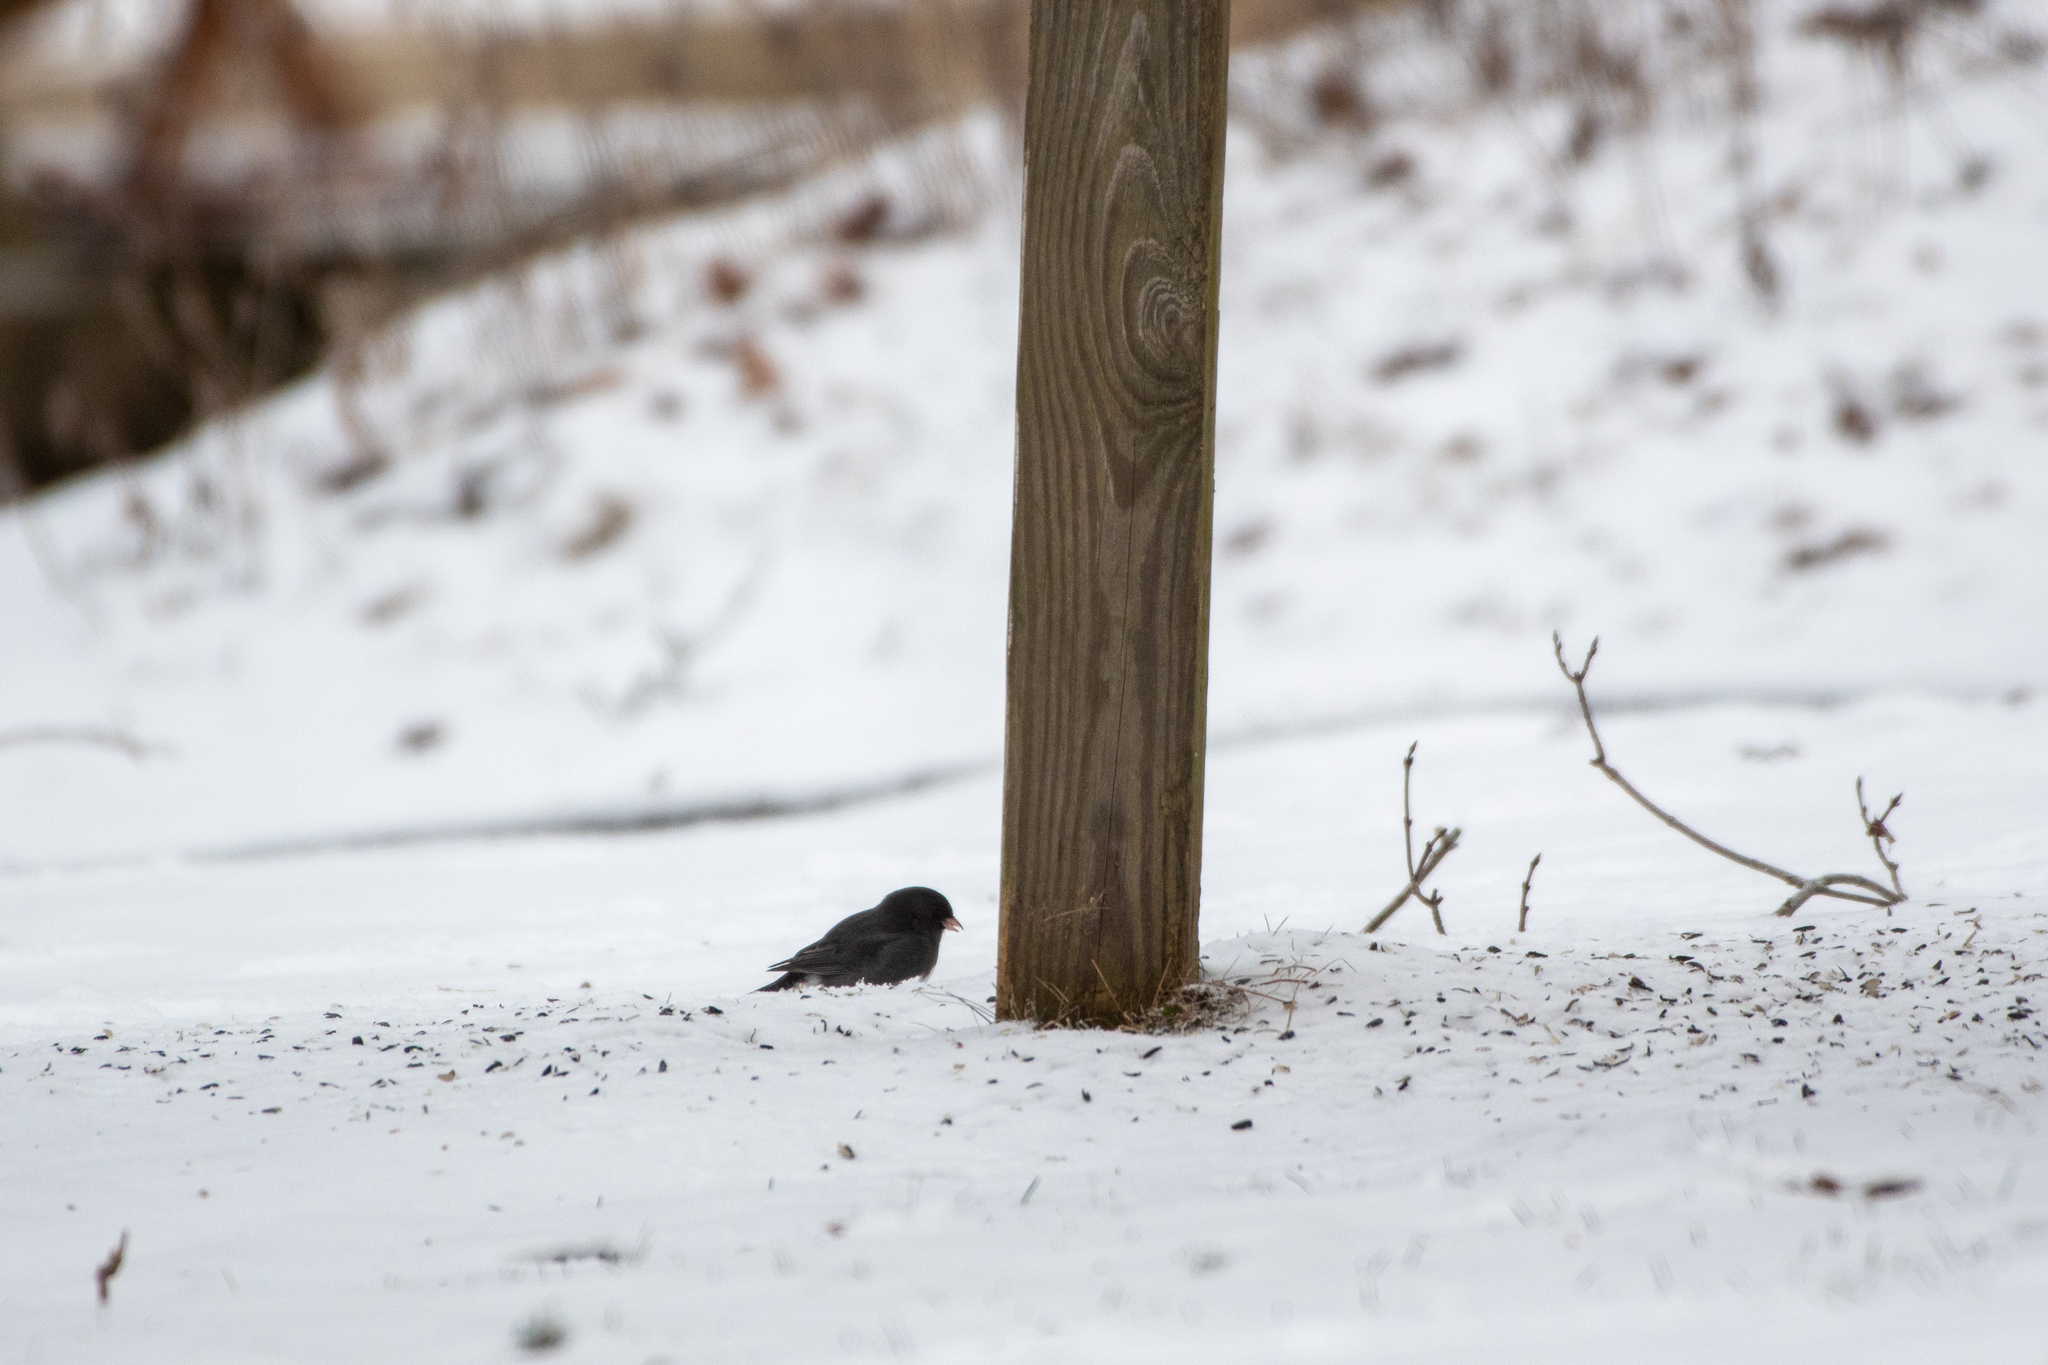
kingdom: Animalia
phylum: Chordata
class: Aves
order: Passeriformes
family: Passerellidae
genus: Junco
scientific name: Junco hyemalis
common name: Dark-eyed junco
